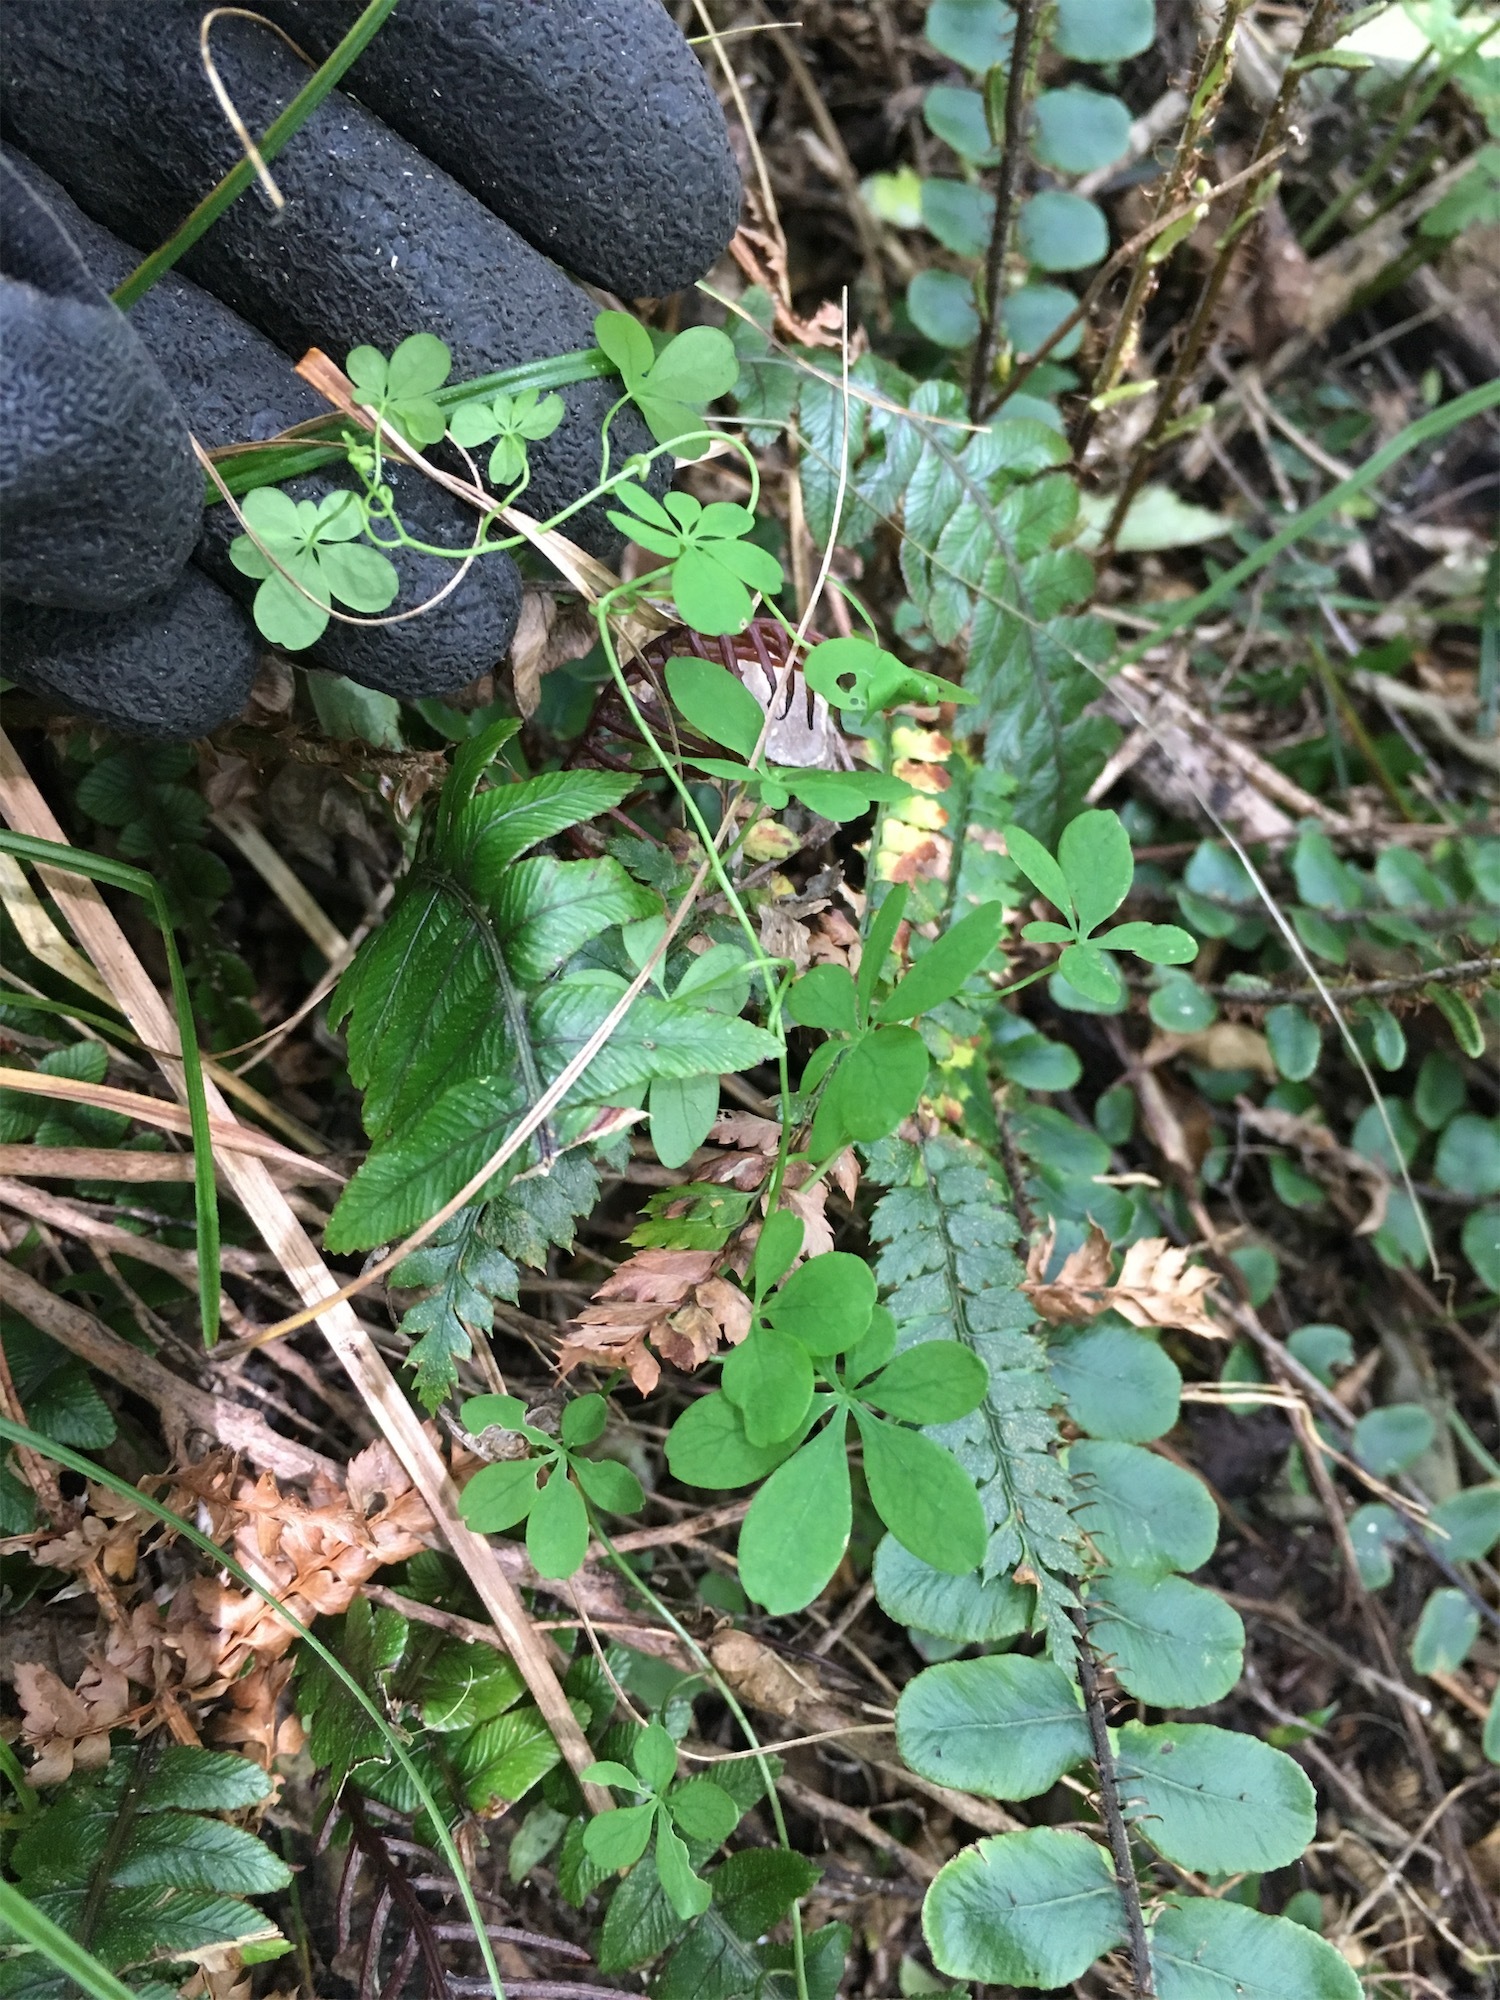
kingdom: Plantae
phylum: Tracheophyta
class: Magnoliopsida
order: Brassicales
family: Tropaeolaceae
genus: Tropaeolum
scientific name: Tropaeolum speciosum
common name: Flame nasturtium
